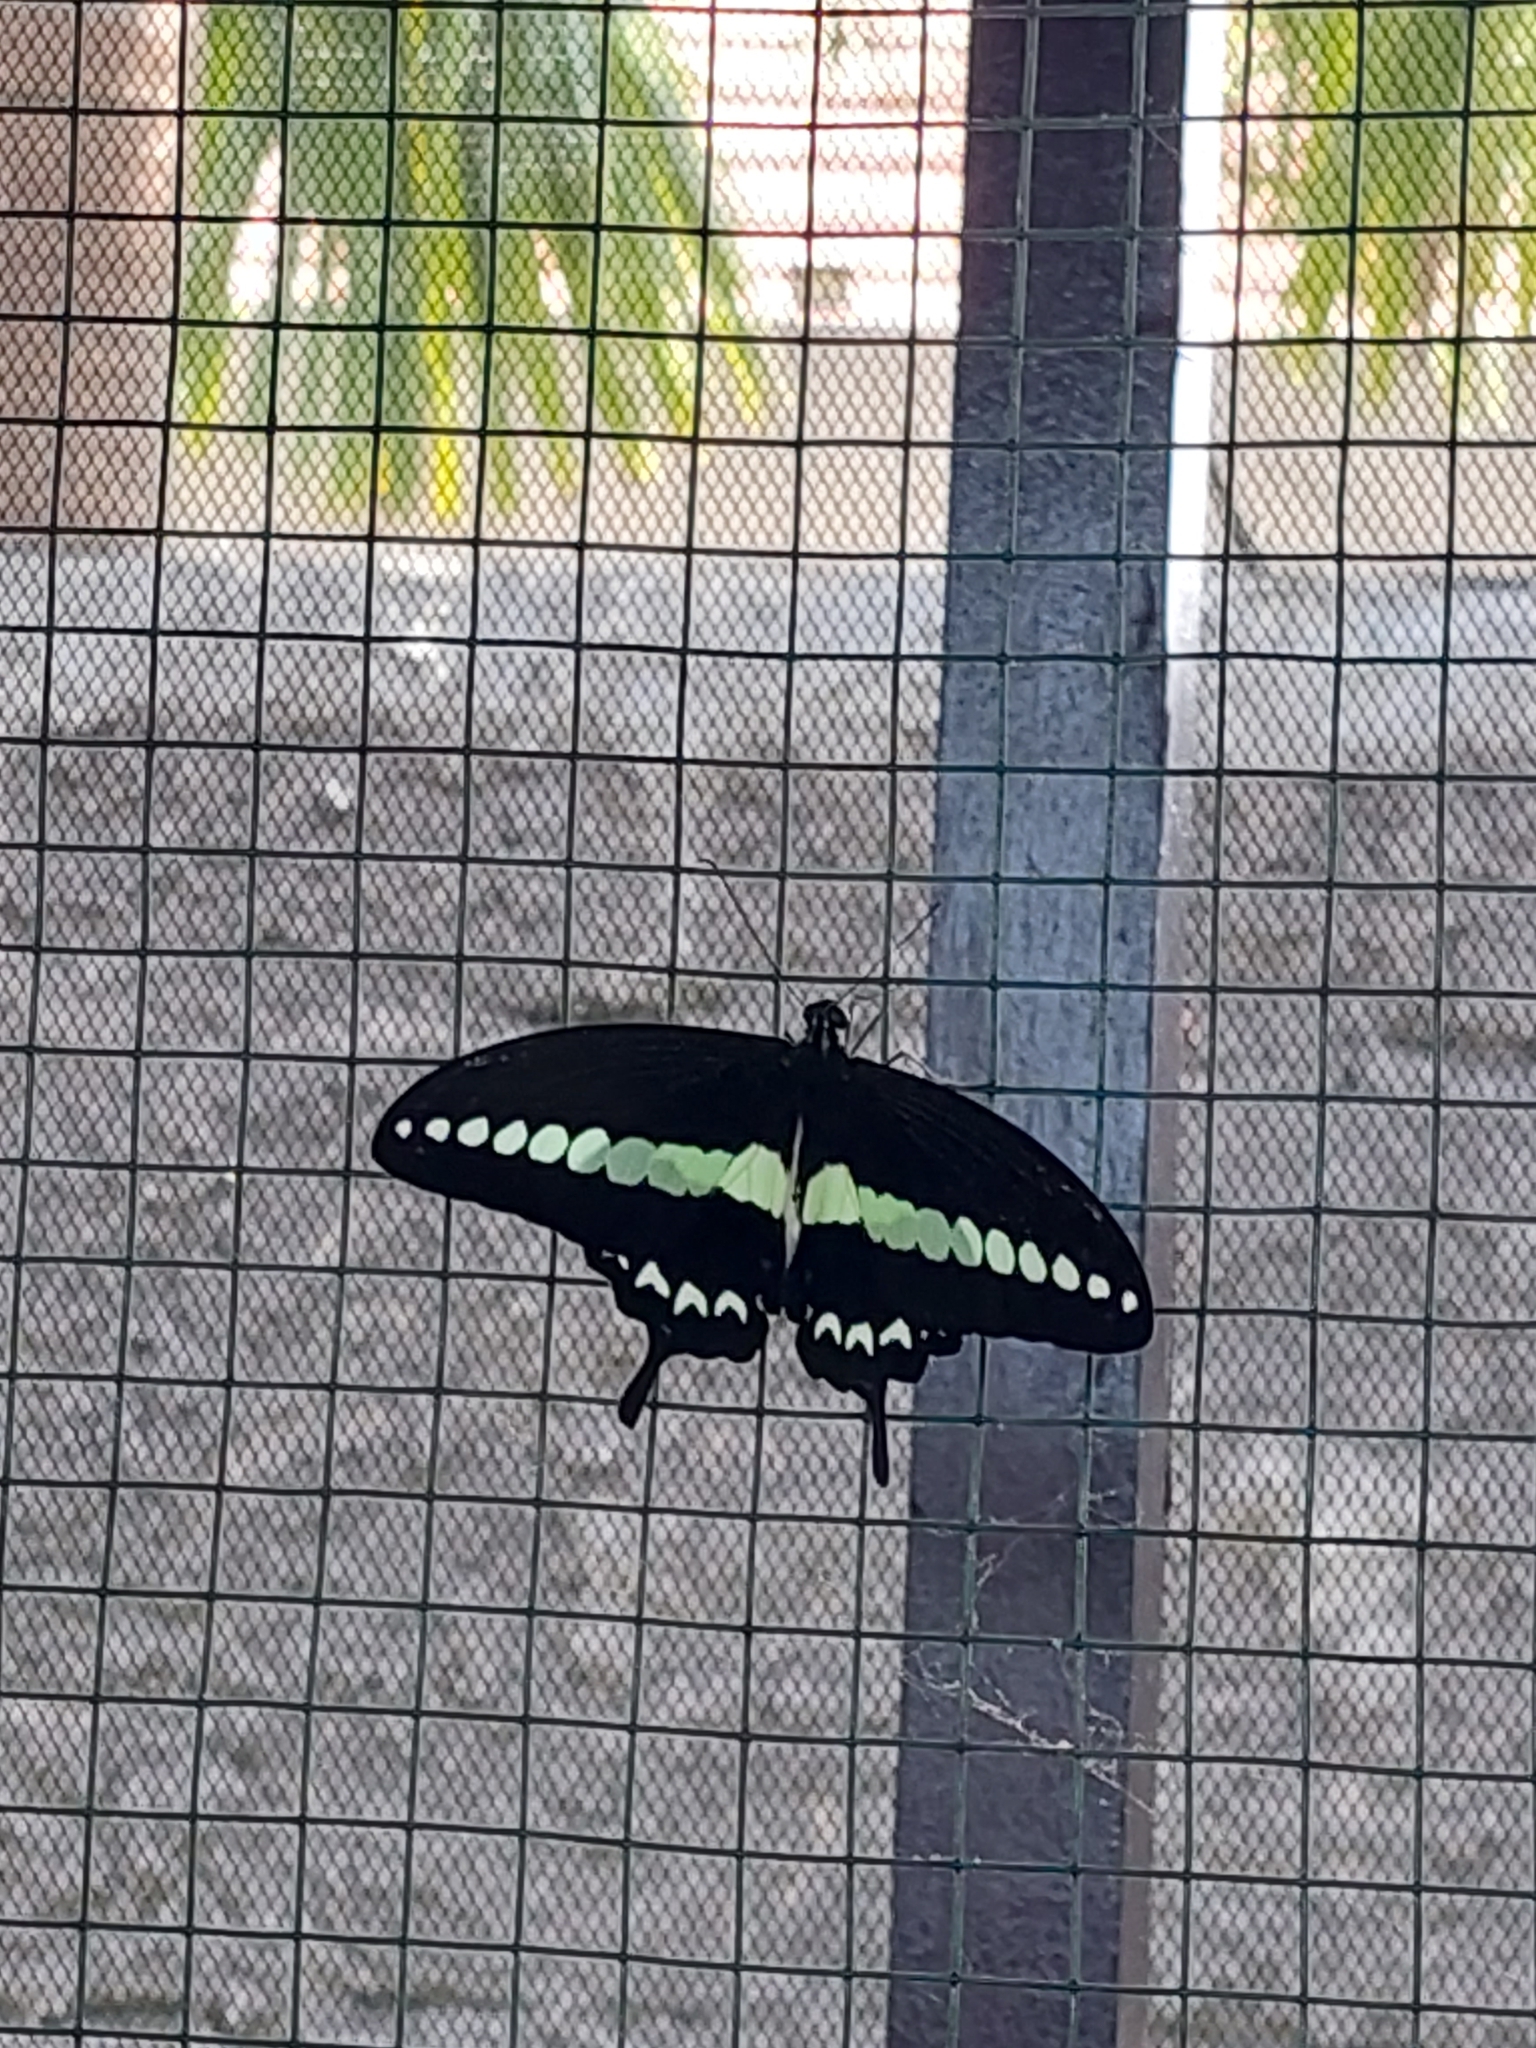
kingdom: Animalia
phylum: Arthropoda
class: Insecta
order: Lepidoptera
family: Papilionidae
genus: Papilio
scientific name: Papilio demolion
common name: Banded swallowtail
